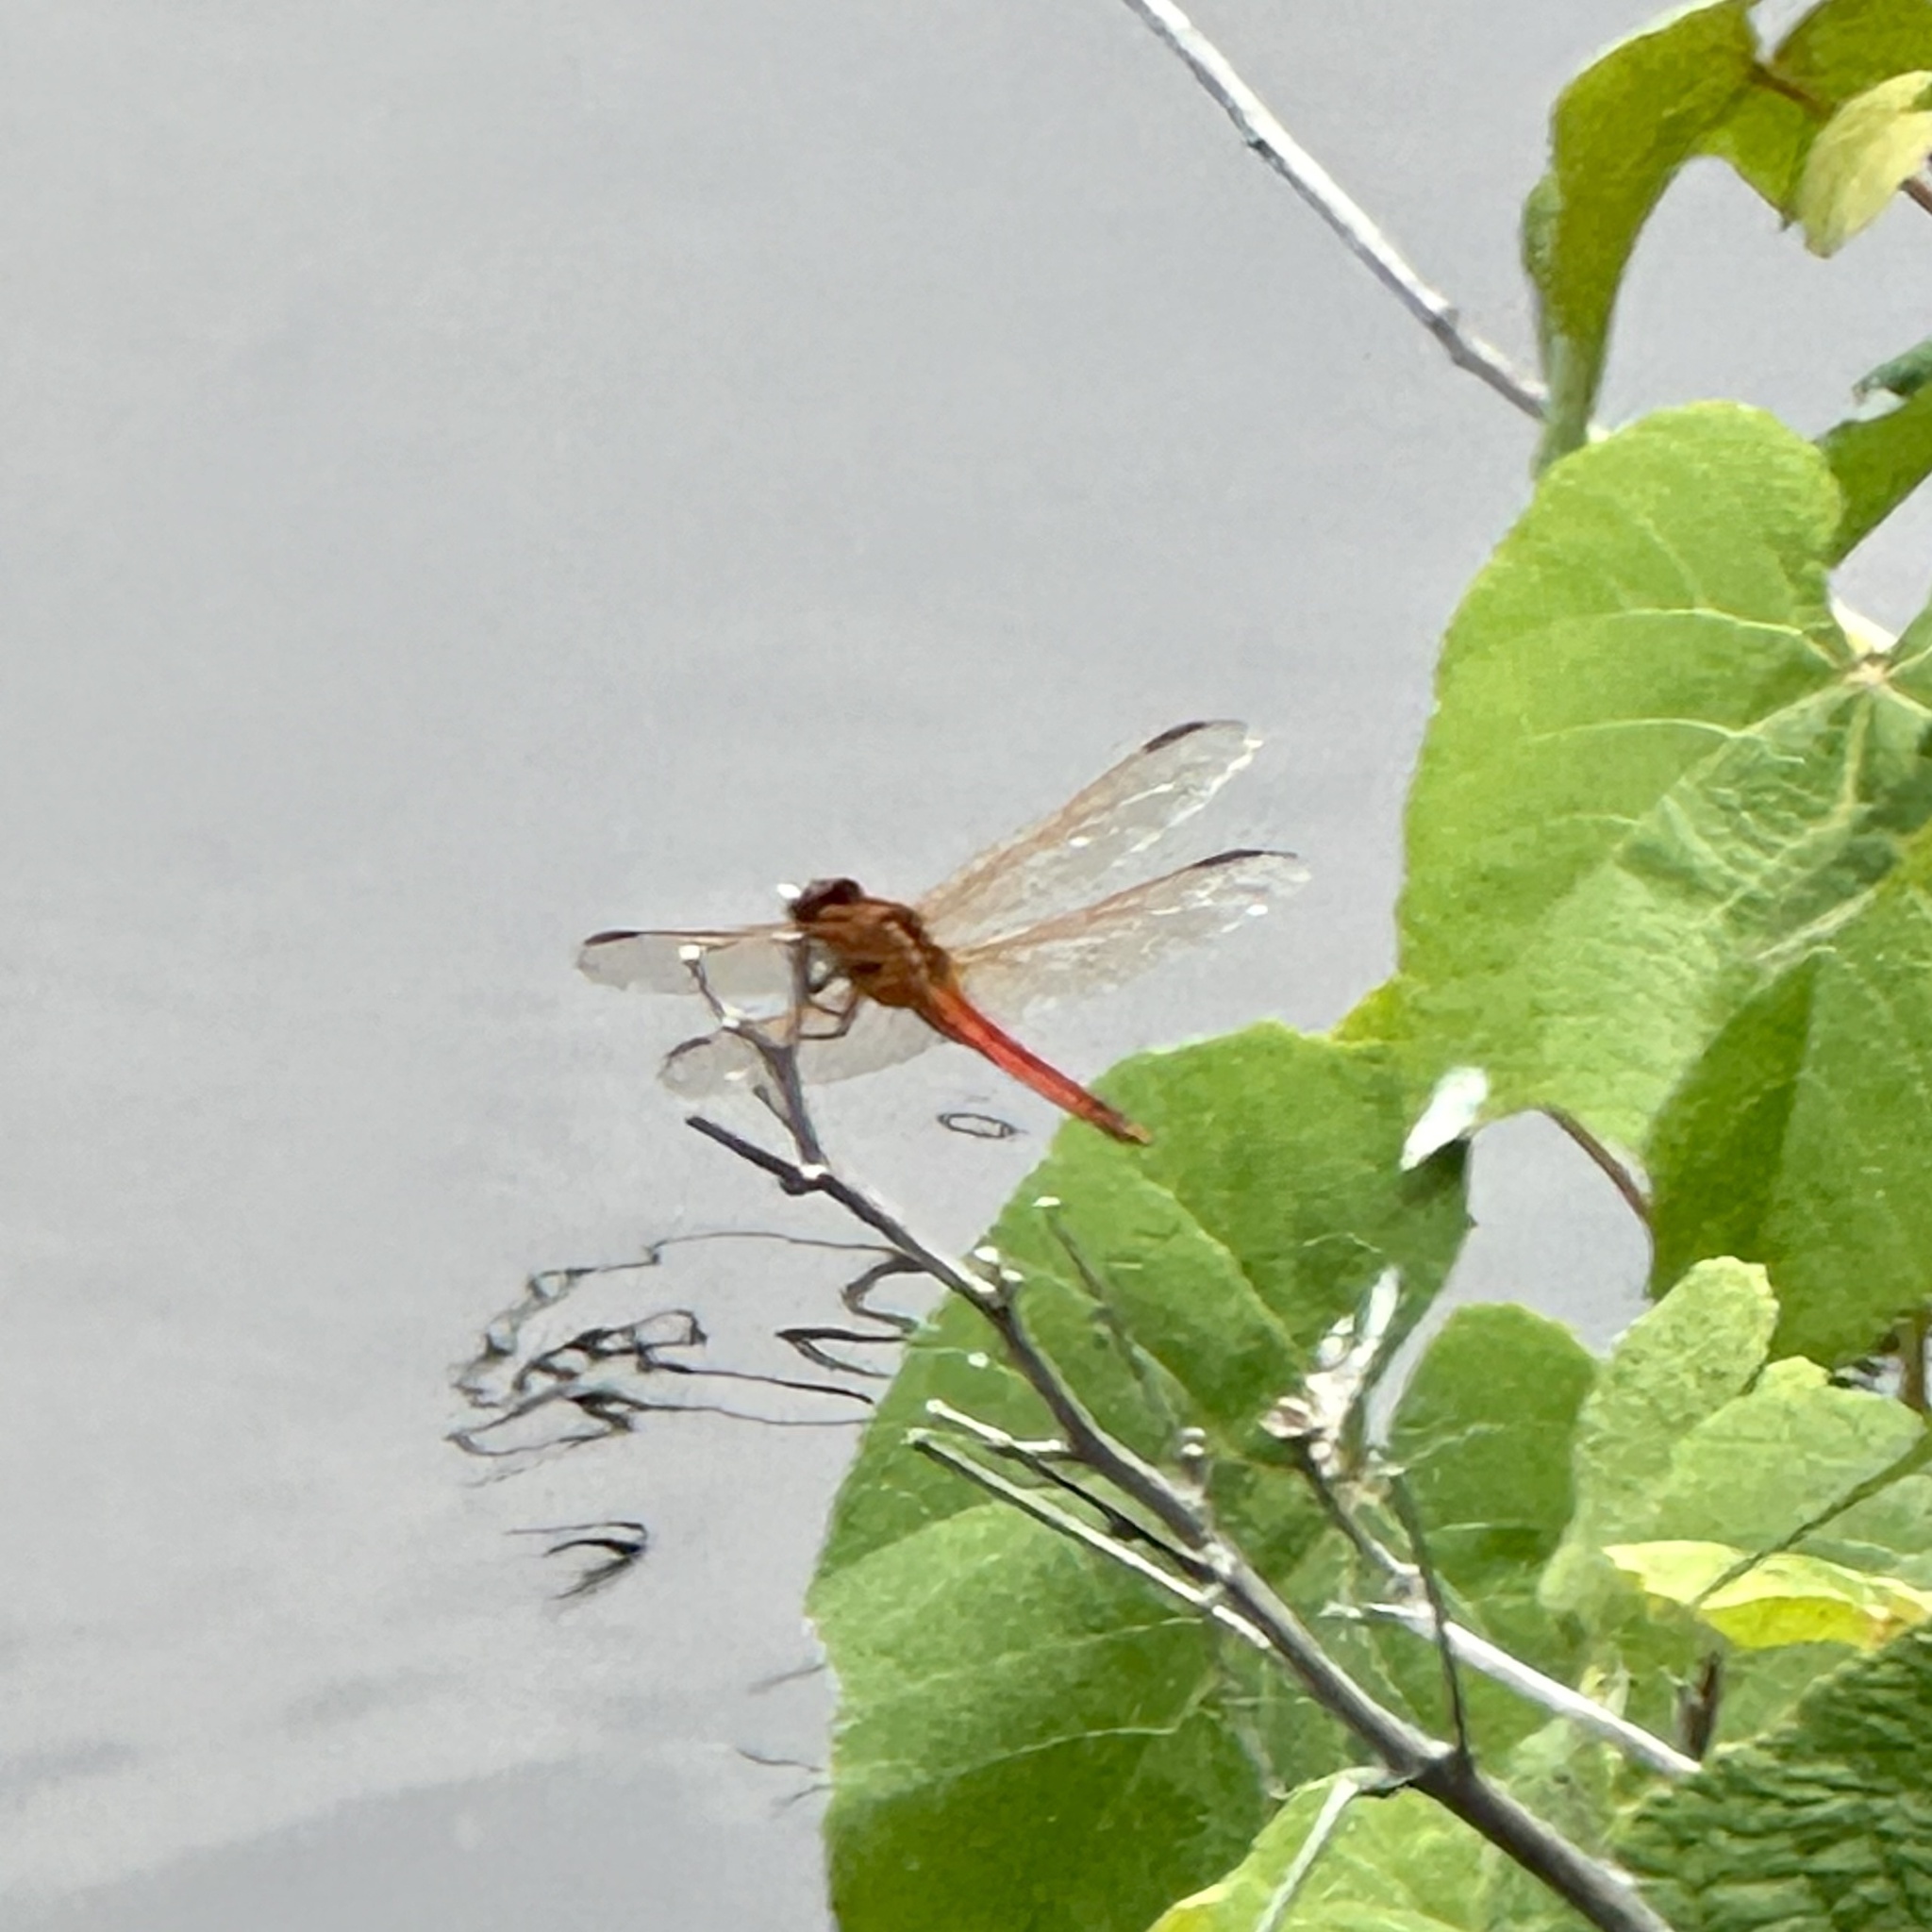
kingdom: Animalia
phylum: Arthropoda
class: Insecta
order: Odonata
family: Libellulidae
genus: Libellula
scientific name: Libellula needhami
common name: Needham's skimmer
